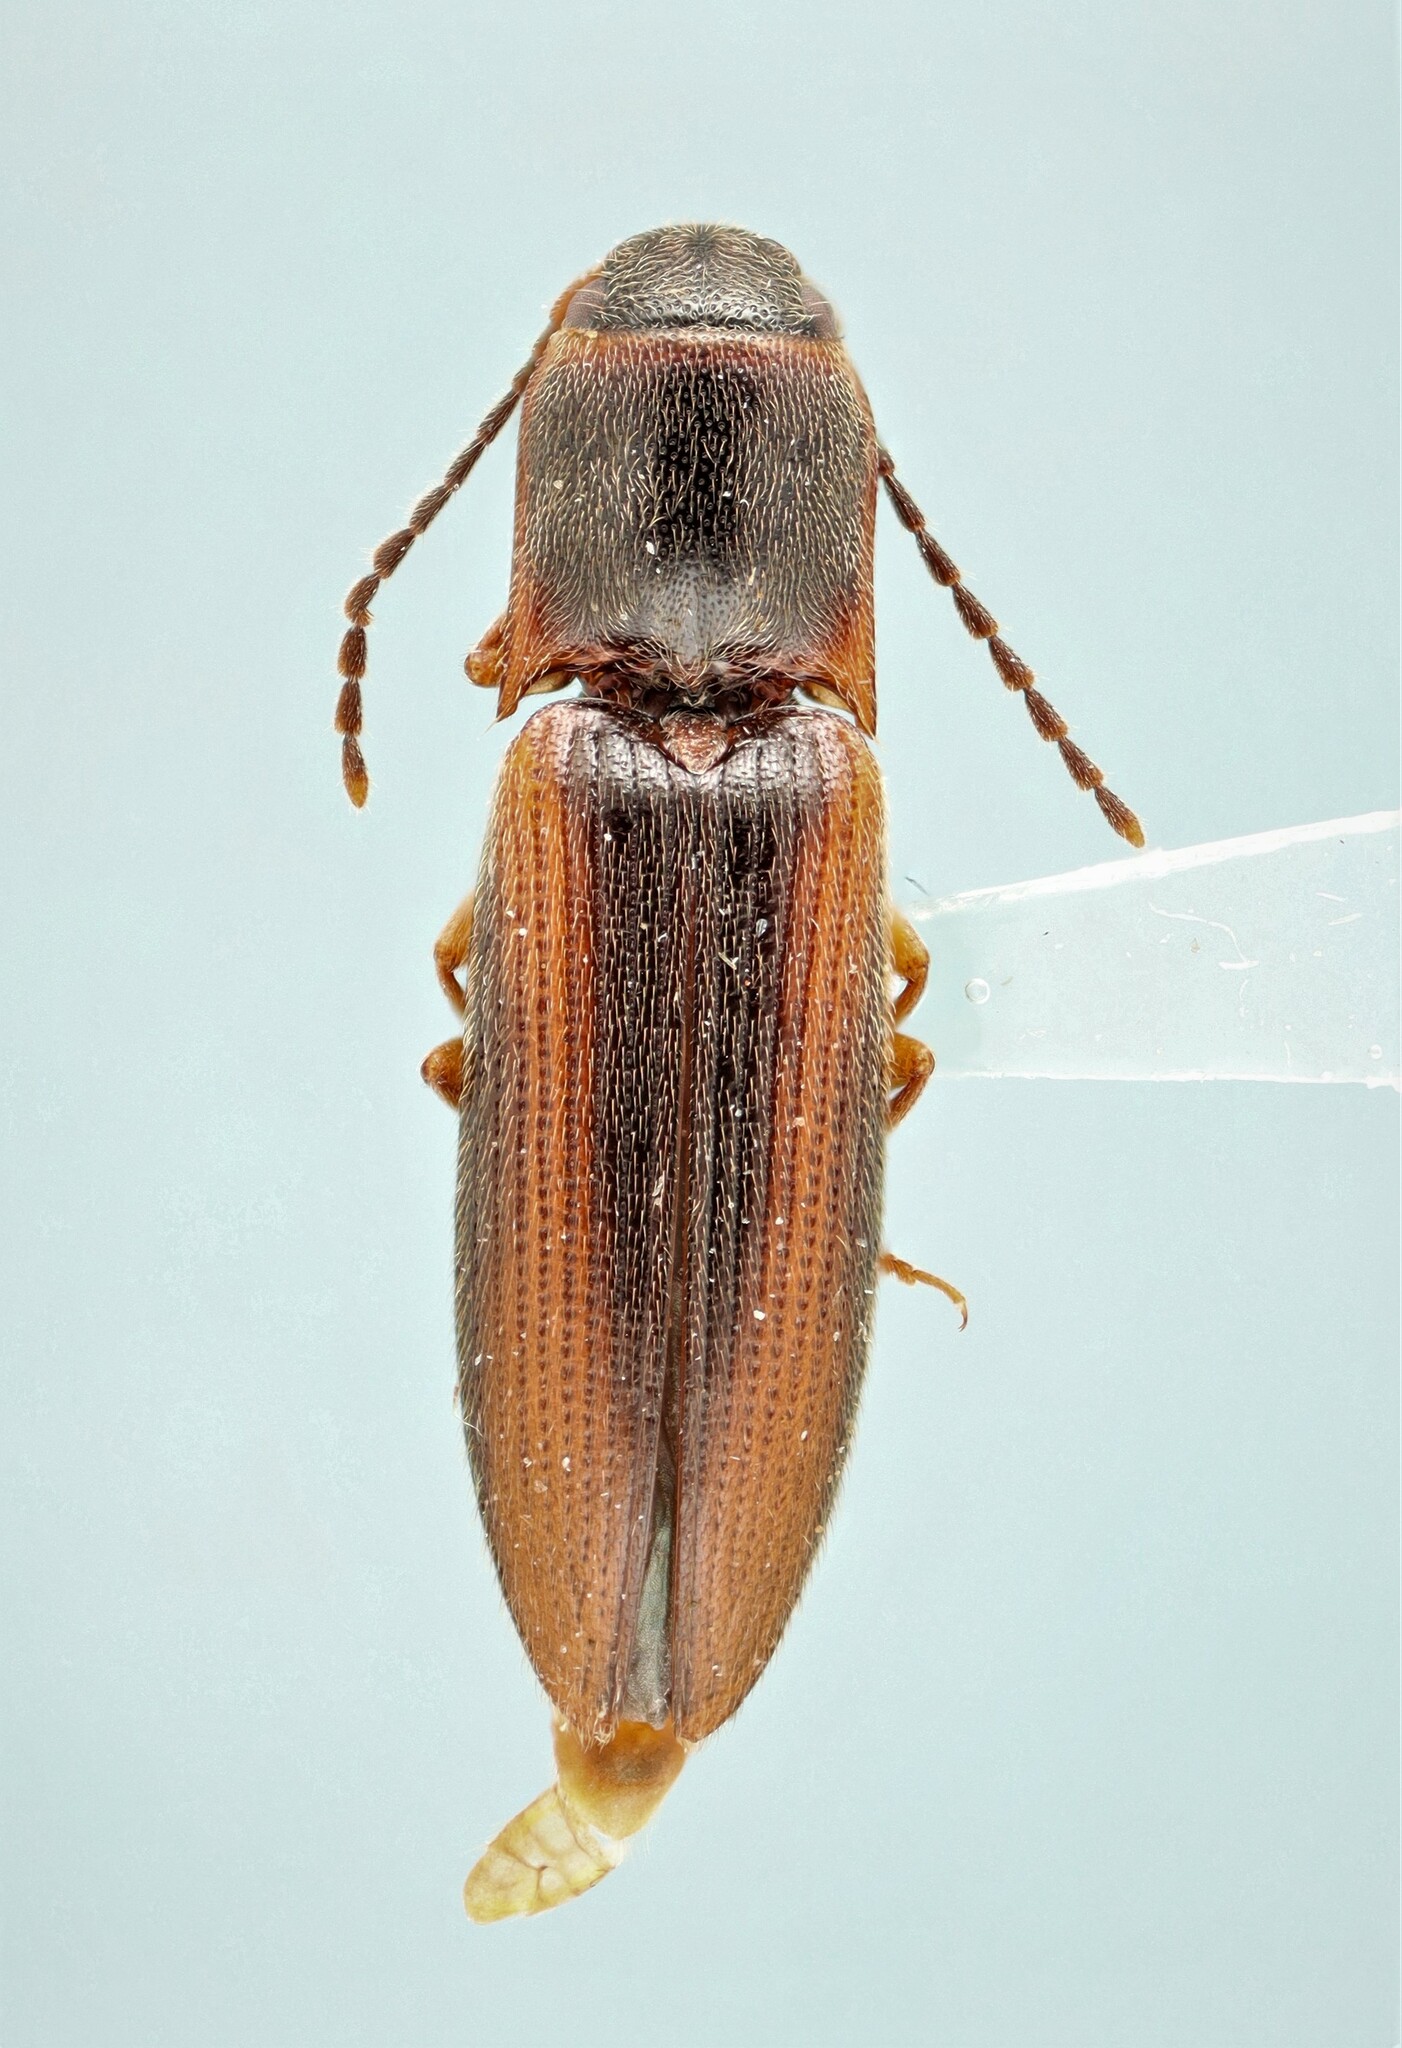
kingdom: Animalia
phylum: Arthropoda
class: Insecta
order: Coleoptera
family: Elateridae
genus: Dalopius
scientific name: Dalopius cognatus
